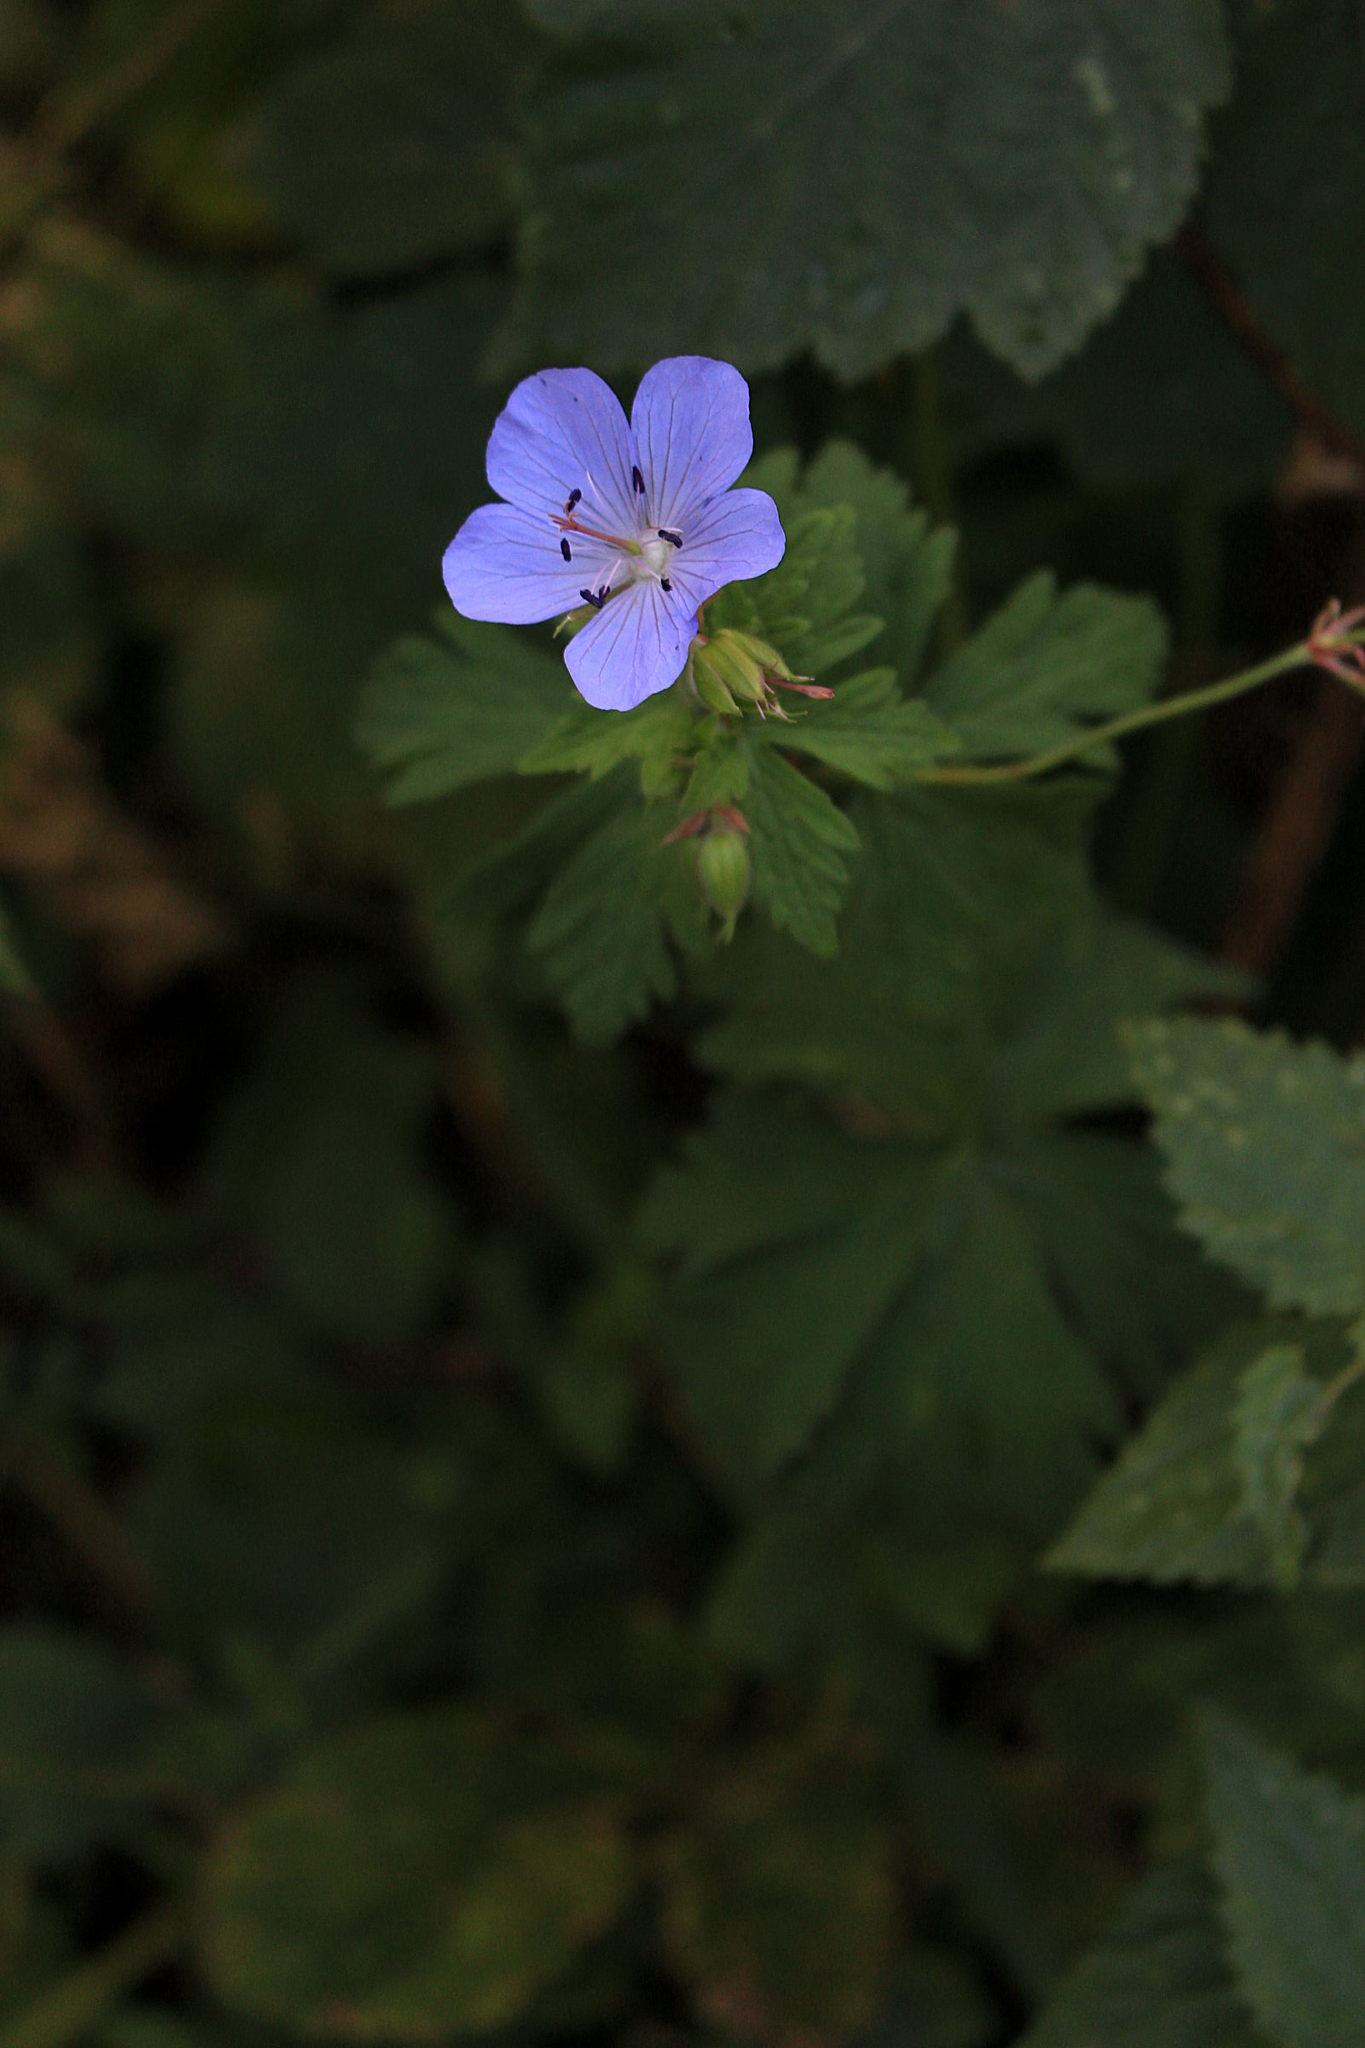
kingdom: Plantae
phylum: Tracheophyta
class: Magnoliopsida
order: Geraniales
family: Geraniaceae
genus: Geranium
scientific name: Geranium pratense
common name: Meadow crane's-bill
